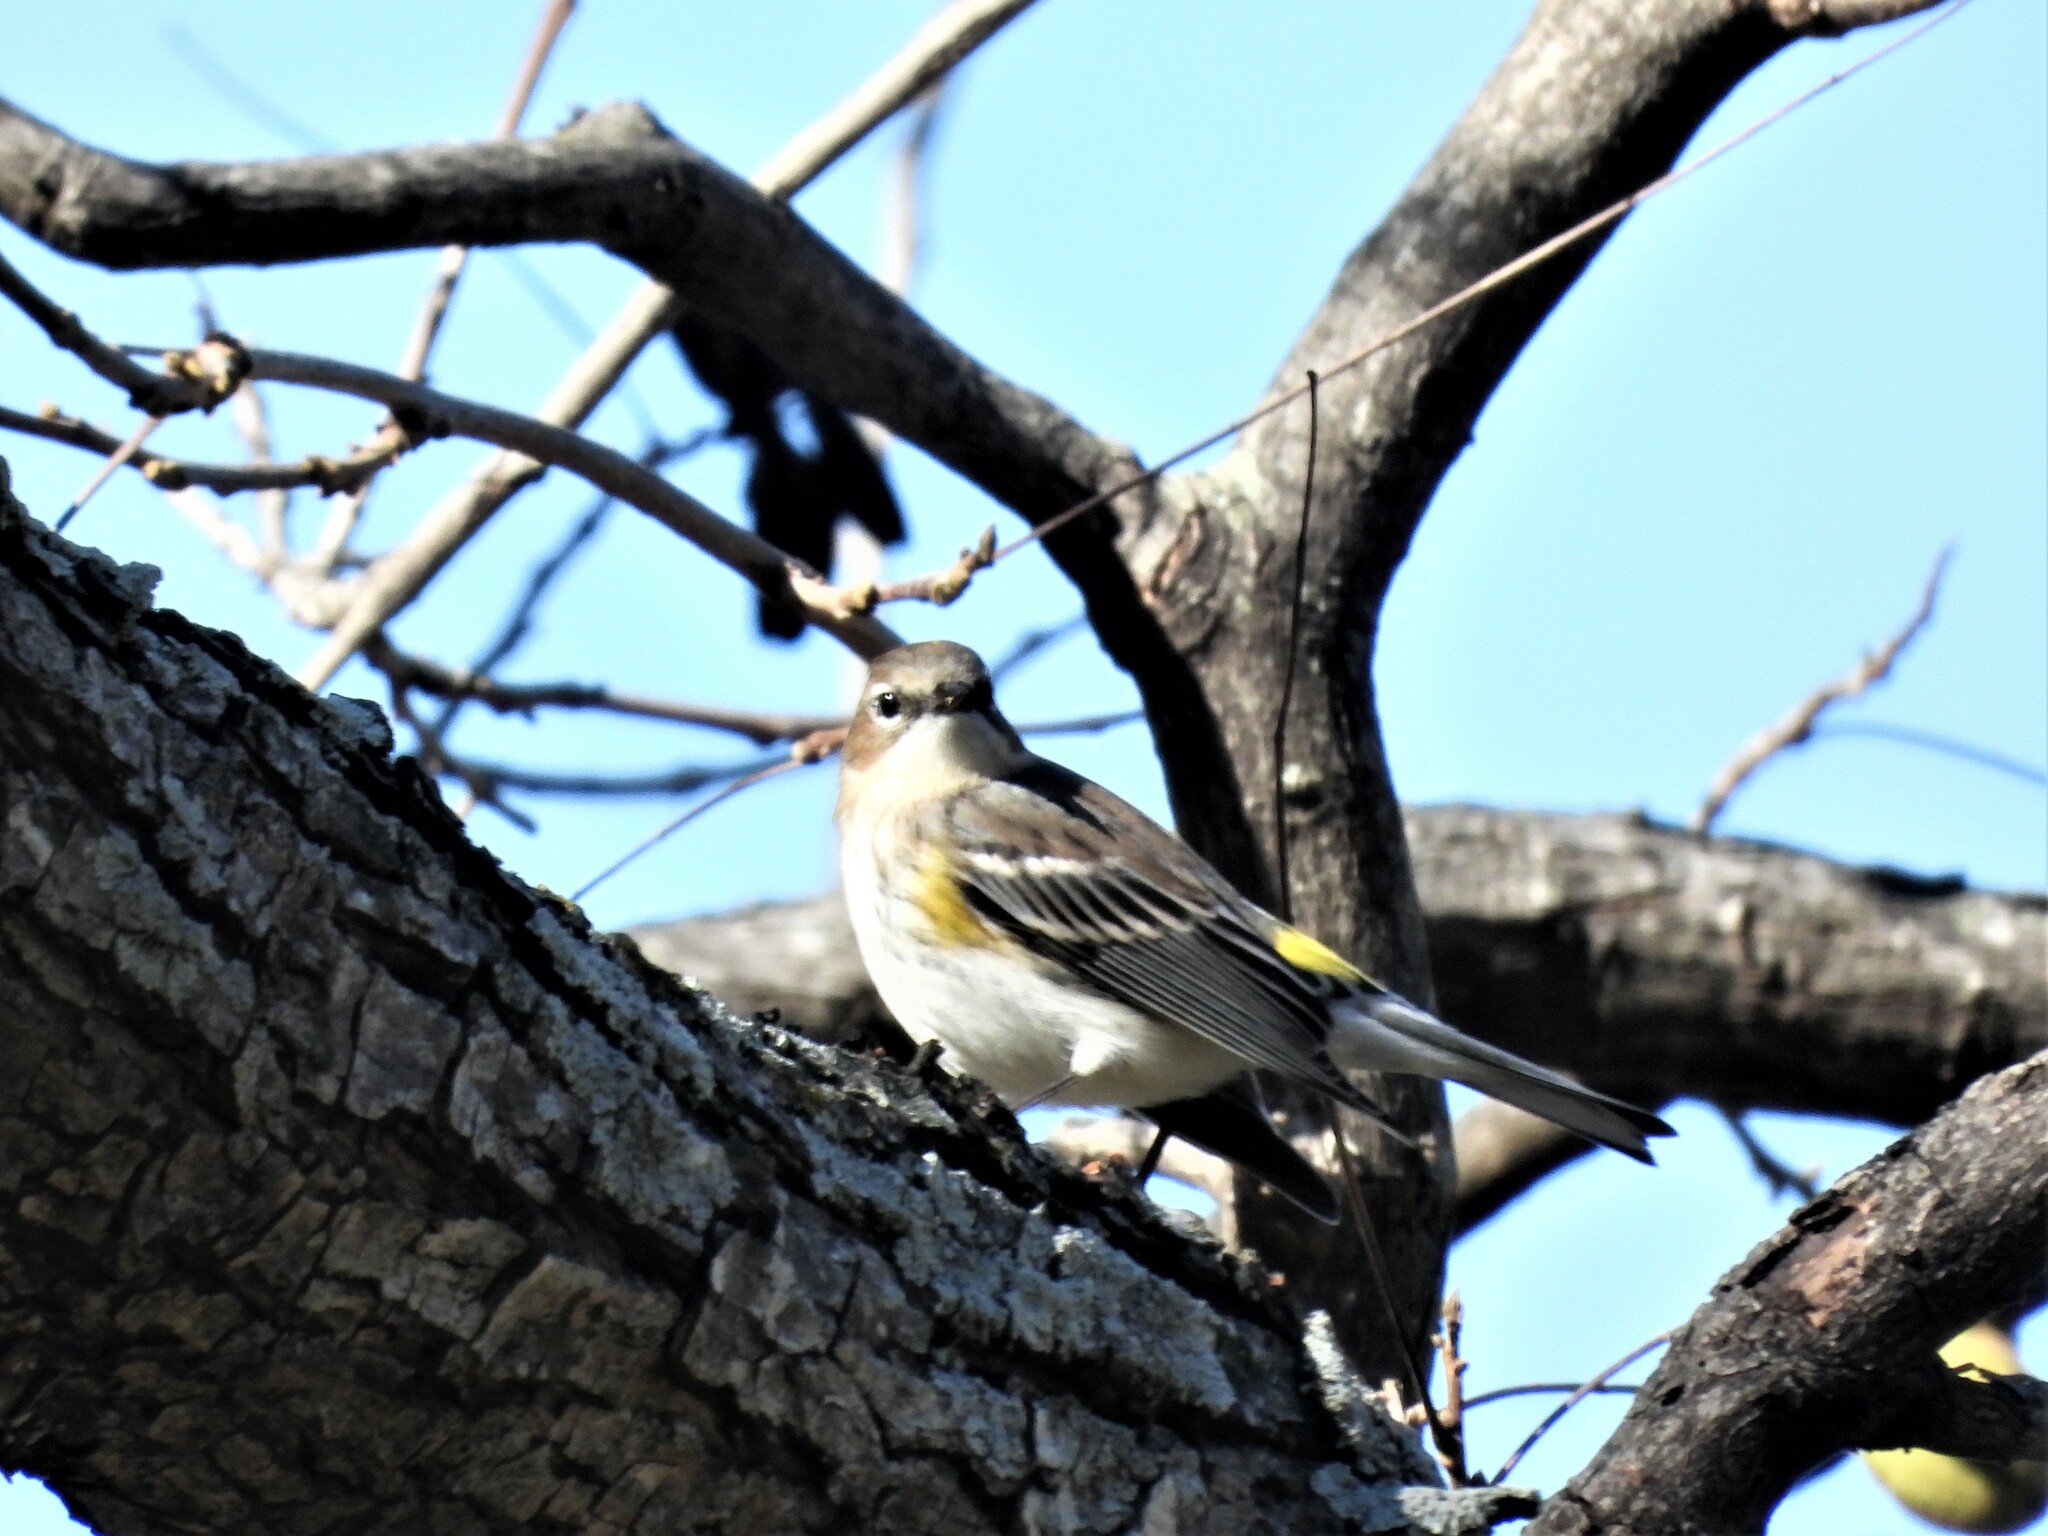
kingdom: Animalia
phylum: Chordata
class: Aves
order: Passeriformes
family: Parulidae
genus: Setophaga
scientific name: Setophaga coronata
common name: Myrtle warbler
